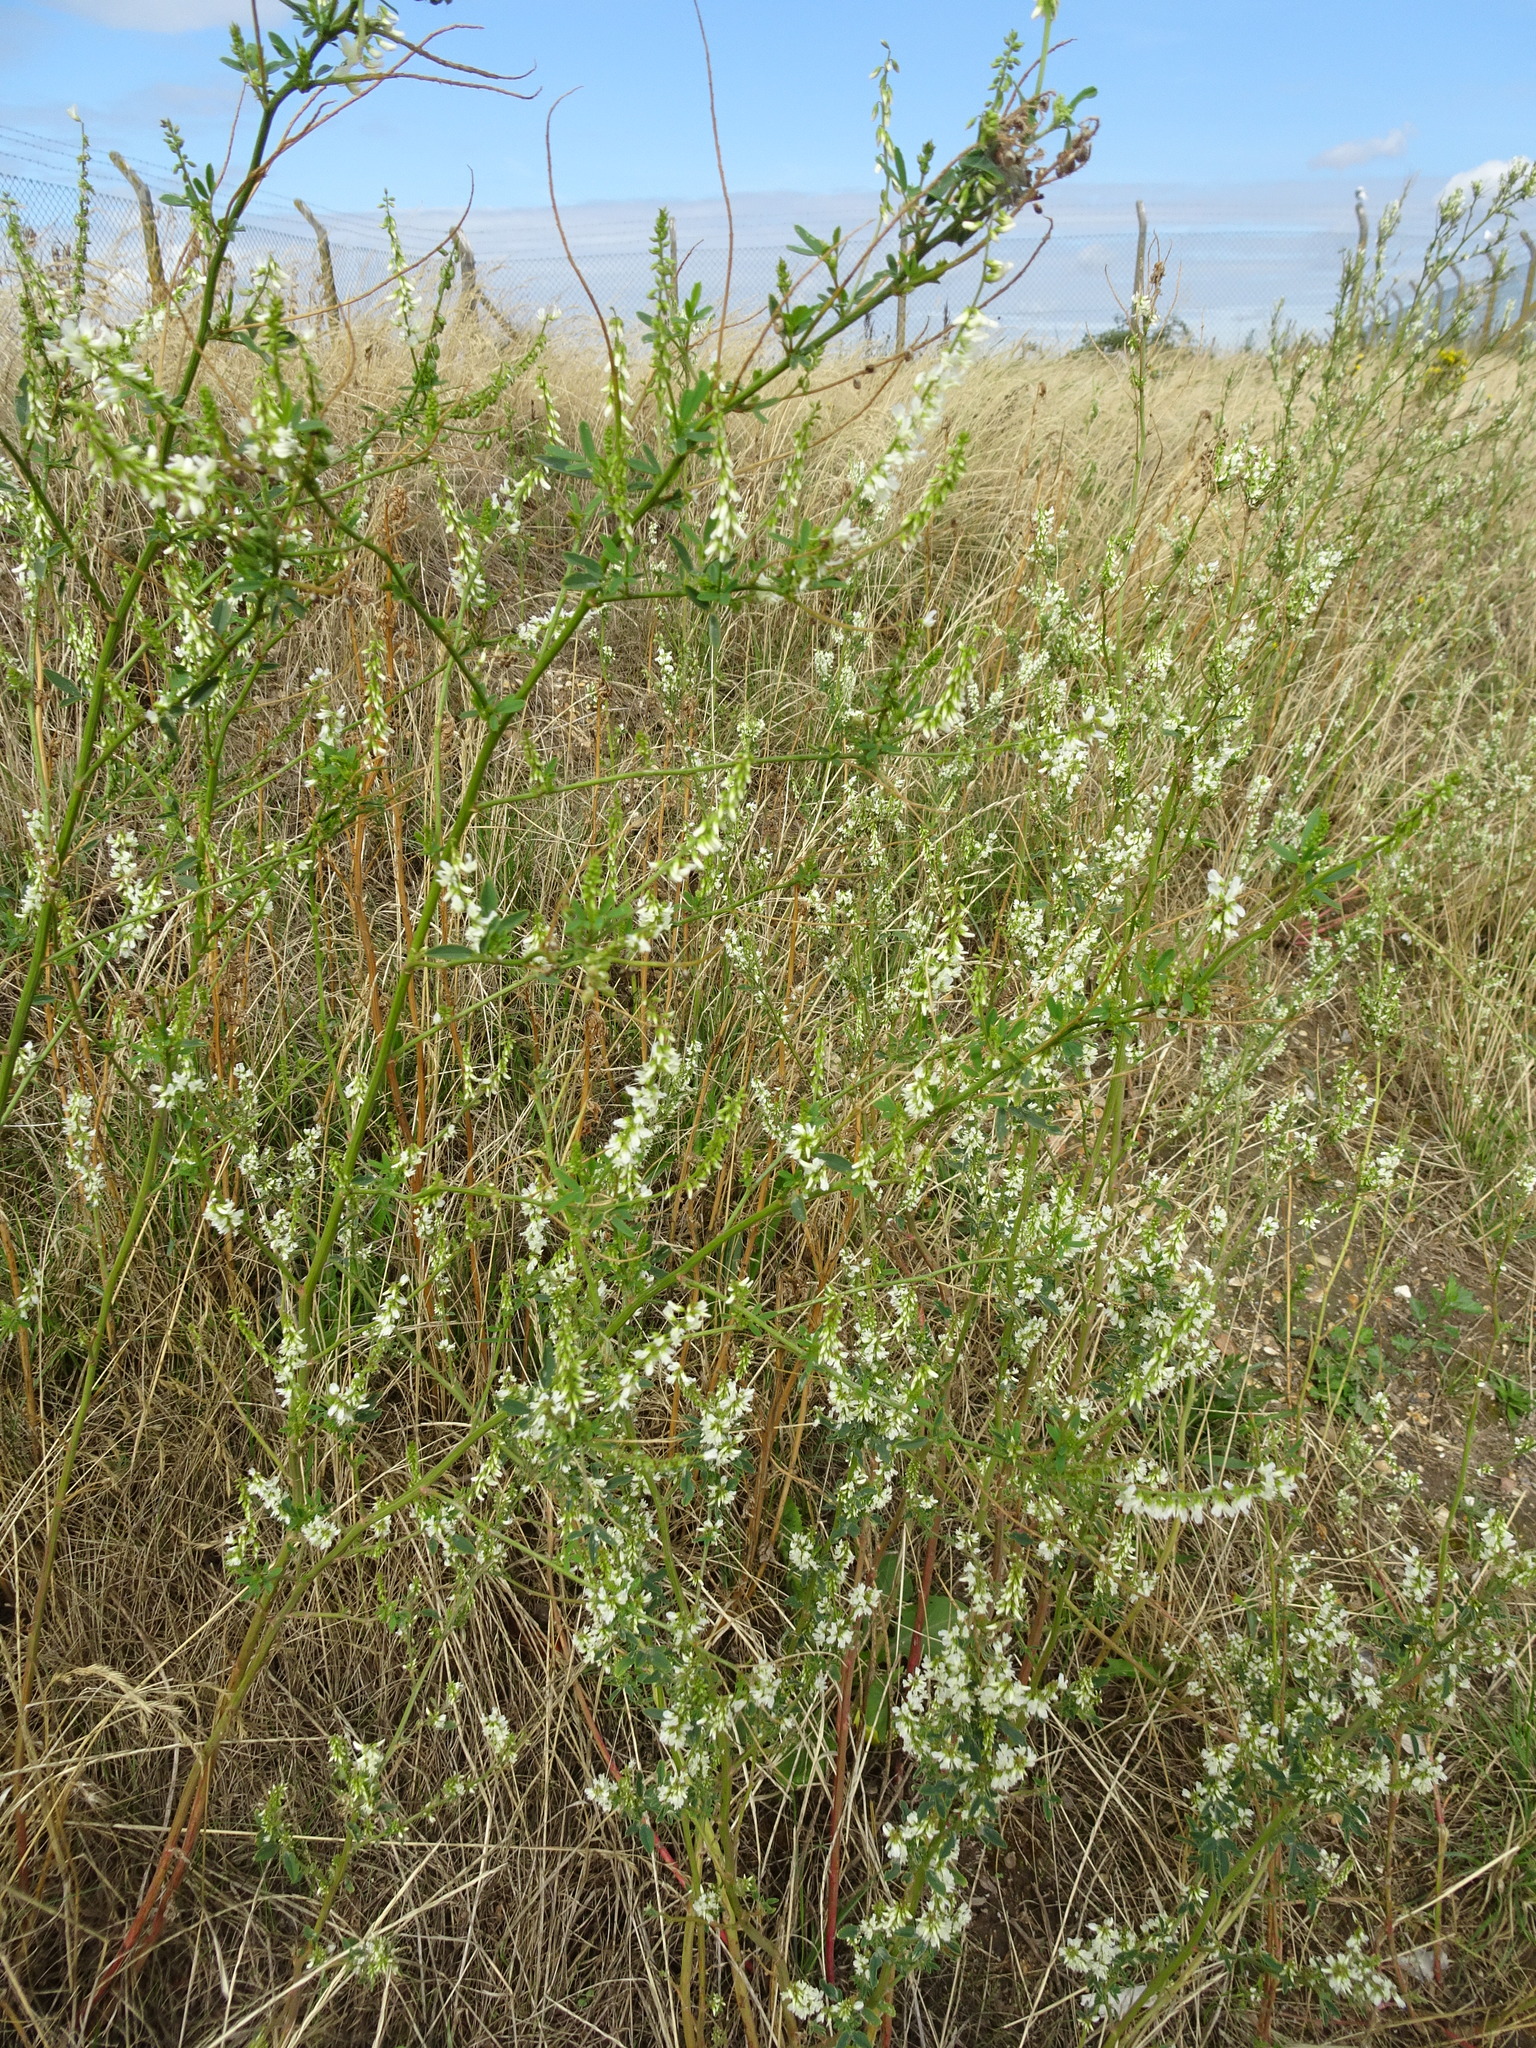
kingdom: Plantae
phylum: Tracheophyta
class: Magnoliopsida
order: Fabales
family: Fabaceae
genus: Melilotus
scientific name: Melilotus albus
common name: White melilot
